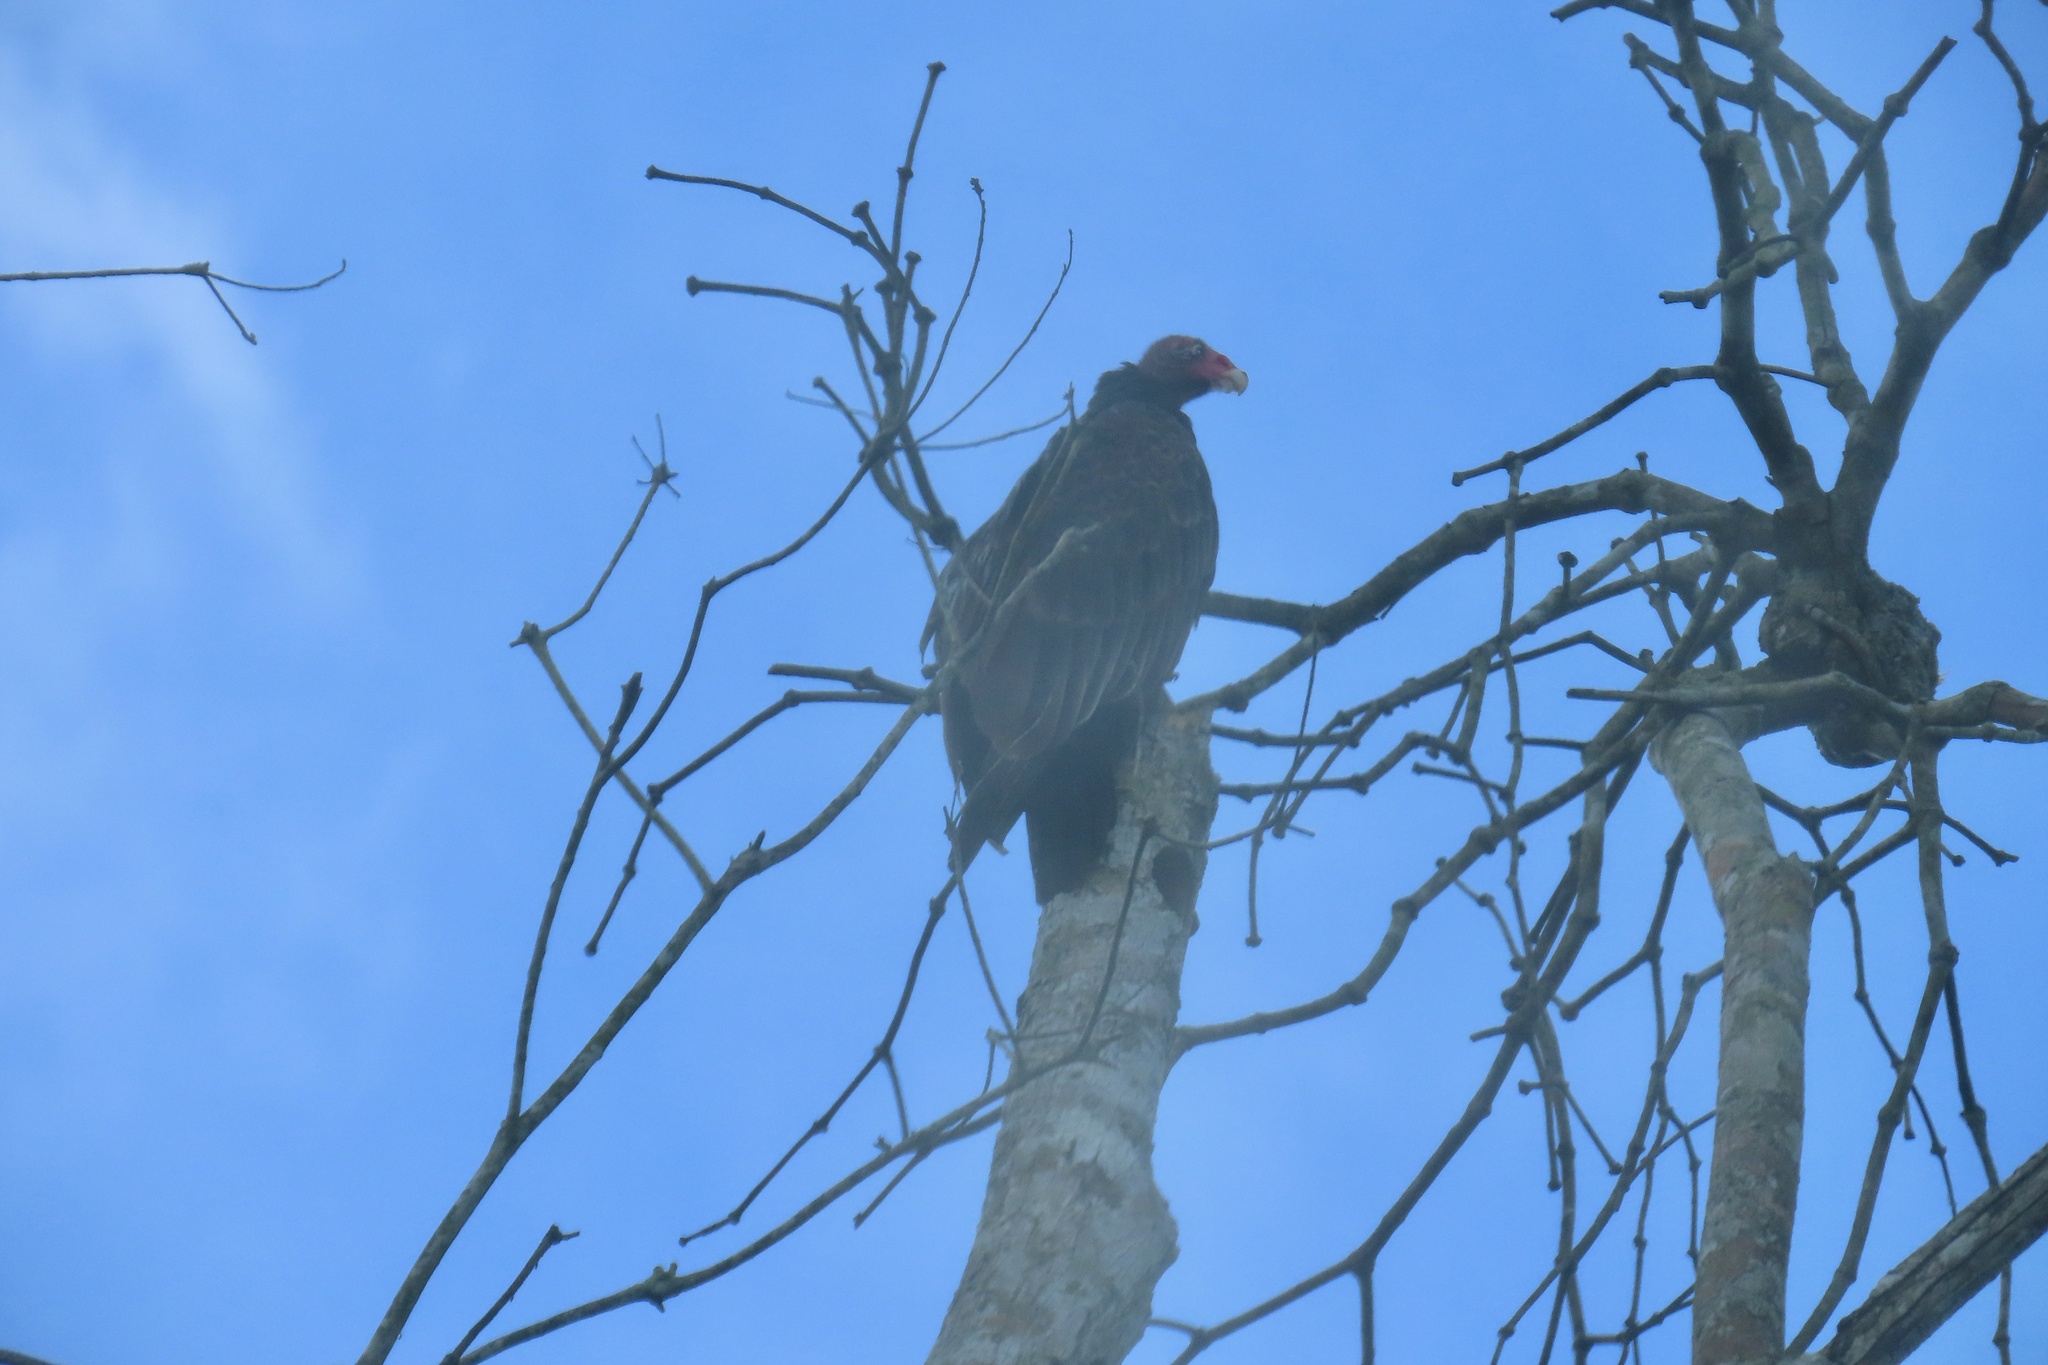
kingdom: Animalia
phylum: Chordata
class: Aves
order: Accipitriformes
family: Cathartidae
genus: Cathartes
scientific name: Cathartes aura
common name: Turkey vulture
